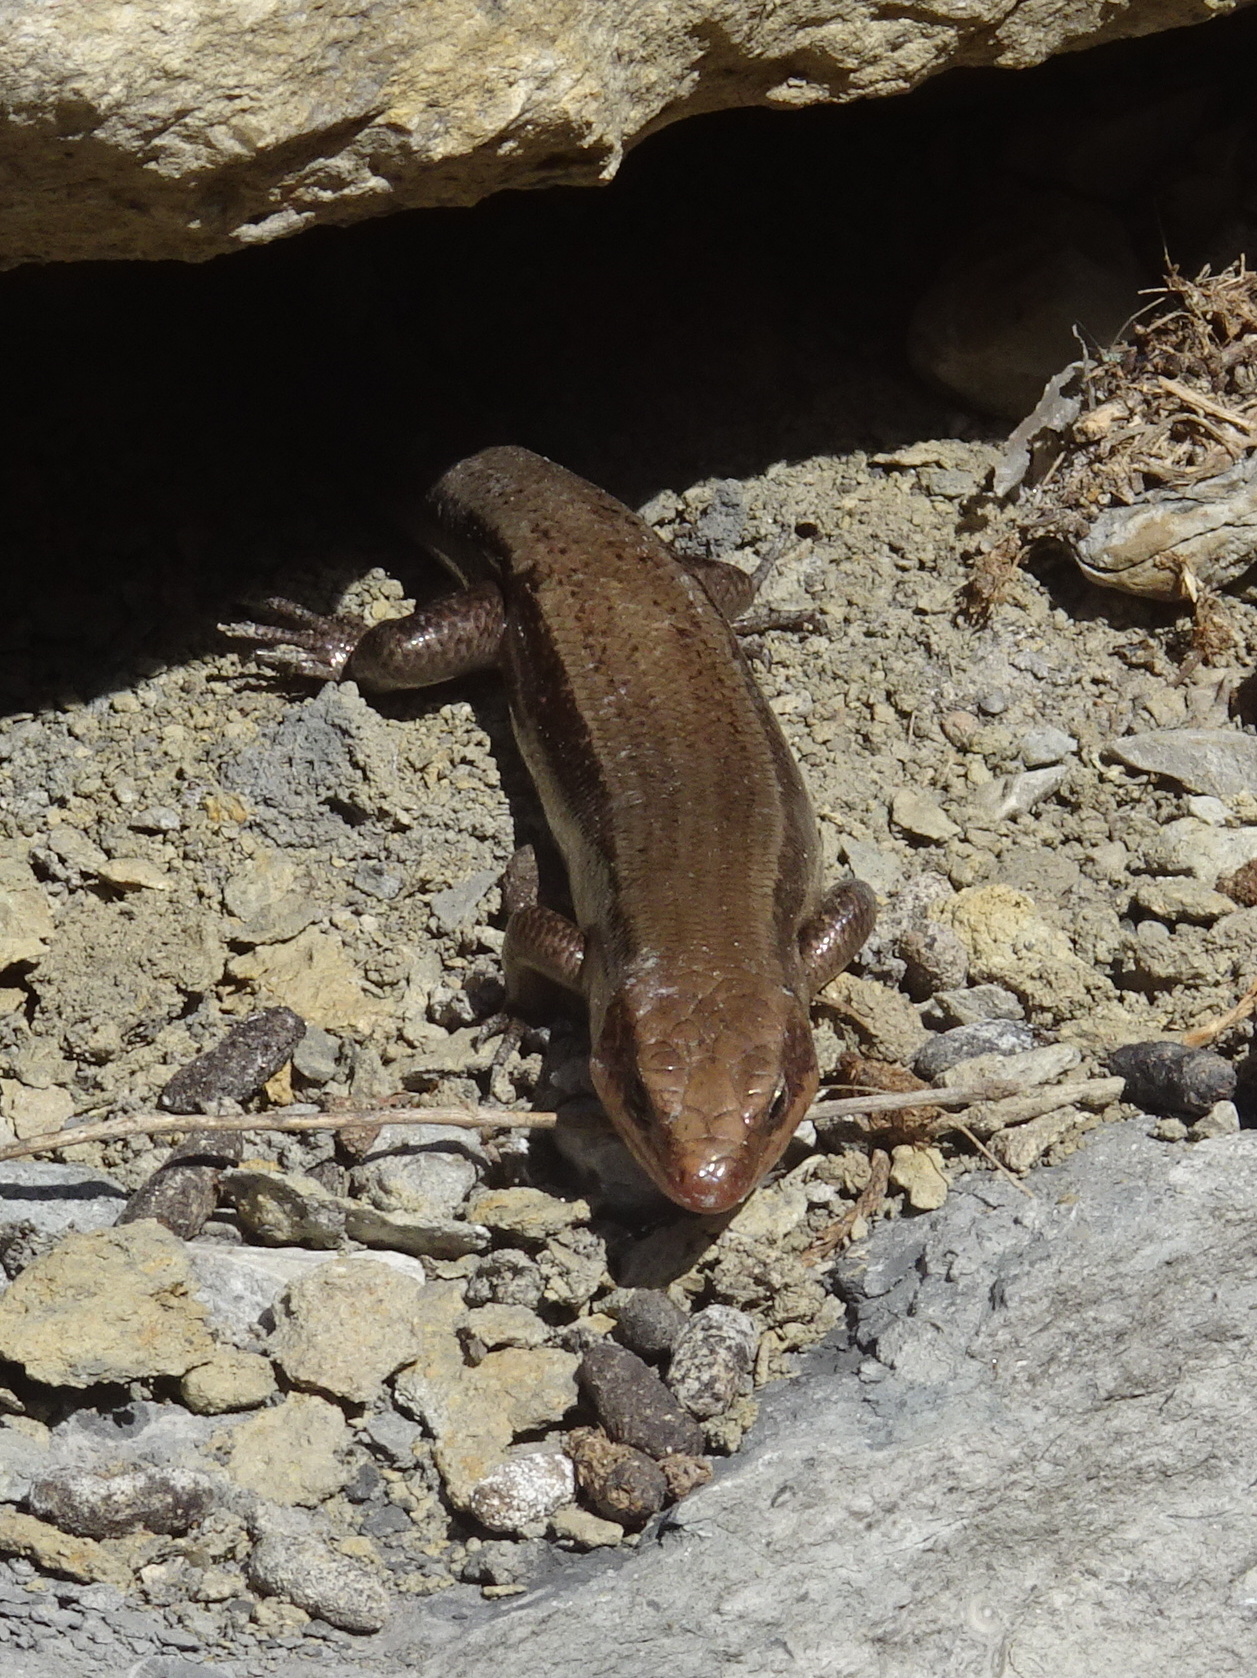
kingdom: Animalia
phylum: Chordata
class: Squamata
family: Scincidae
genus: Plestiodon
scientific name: Plestiodon fasciatus
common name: Five-lined skink
